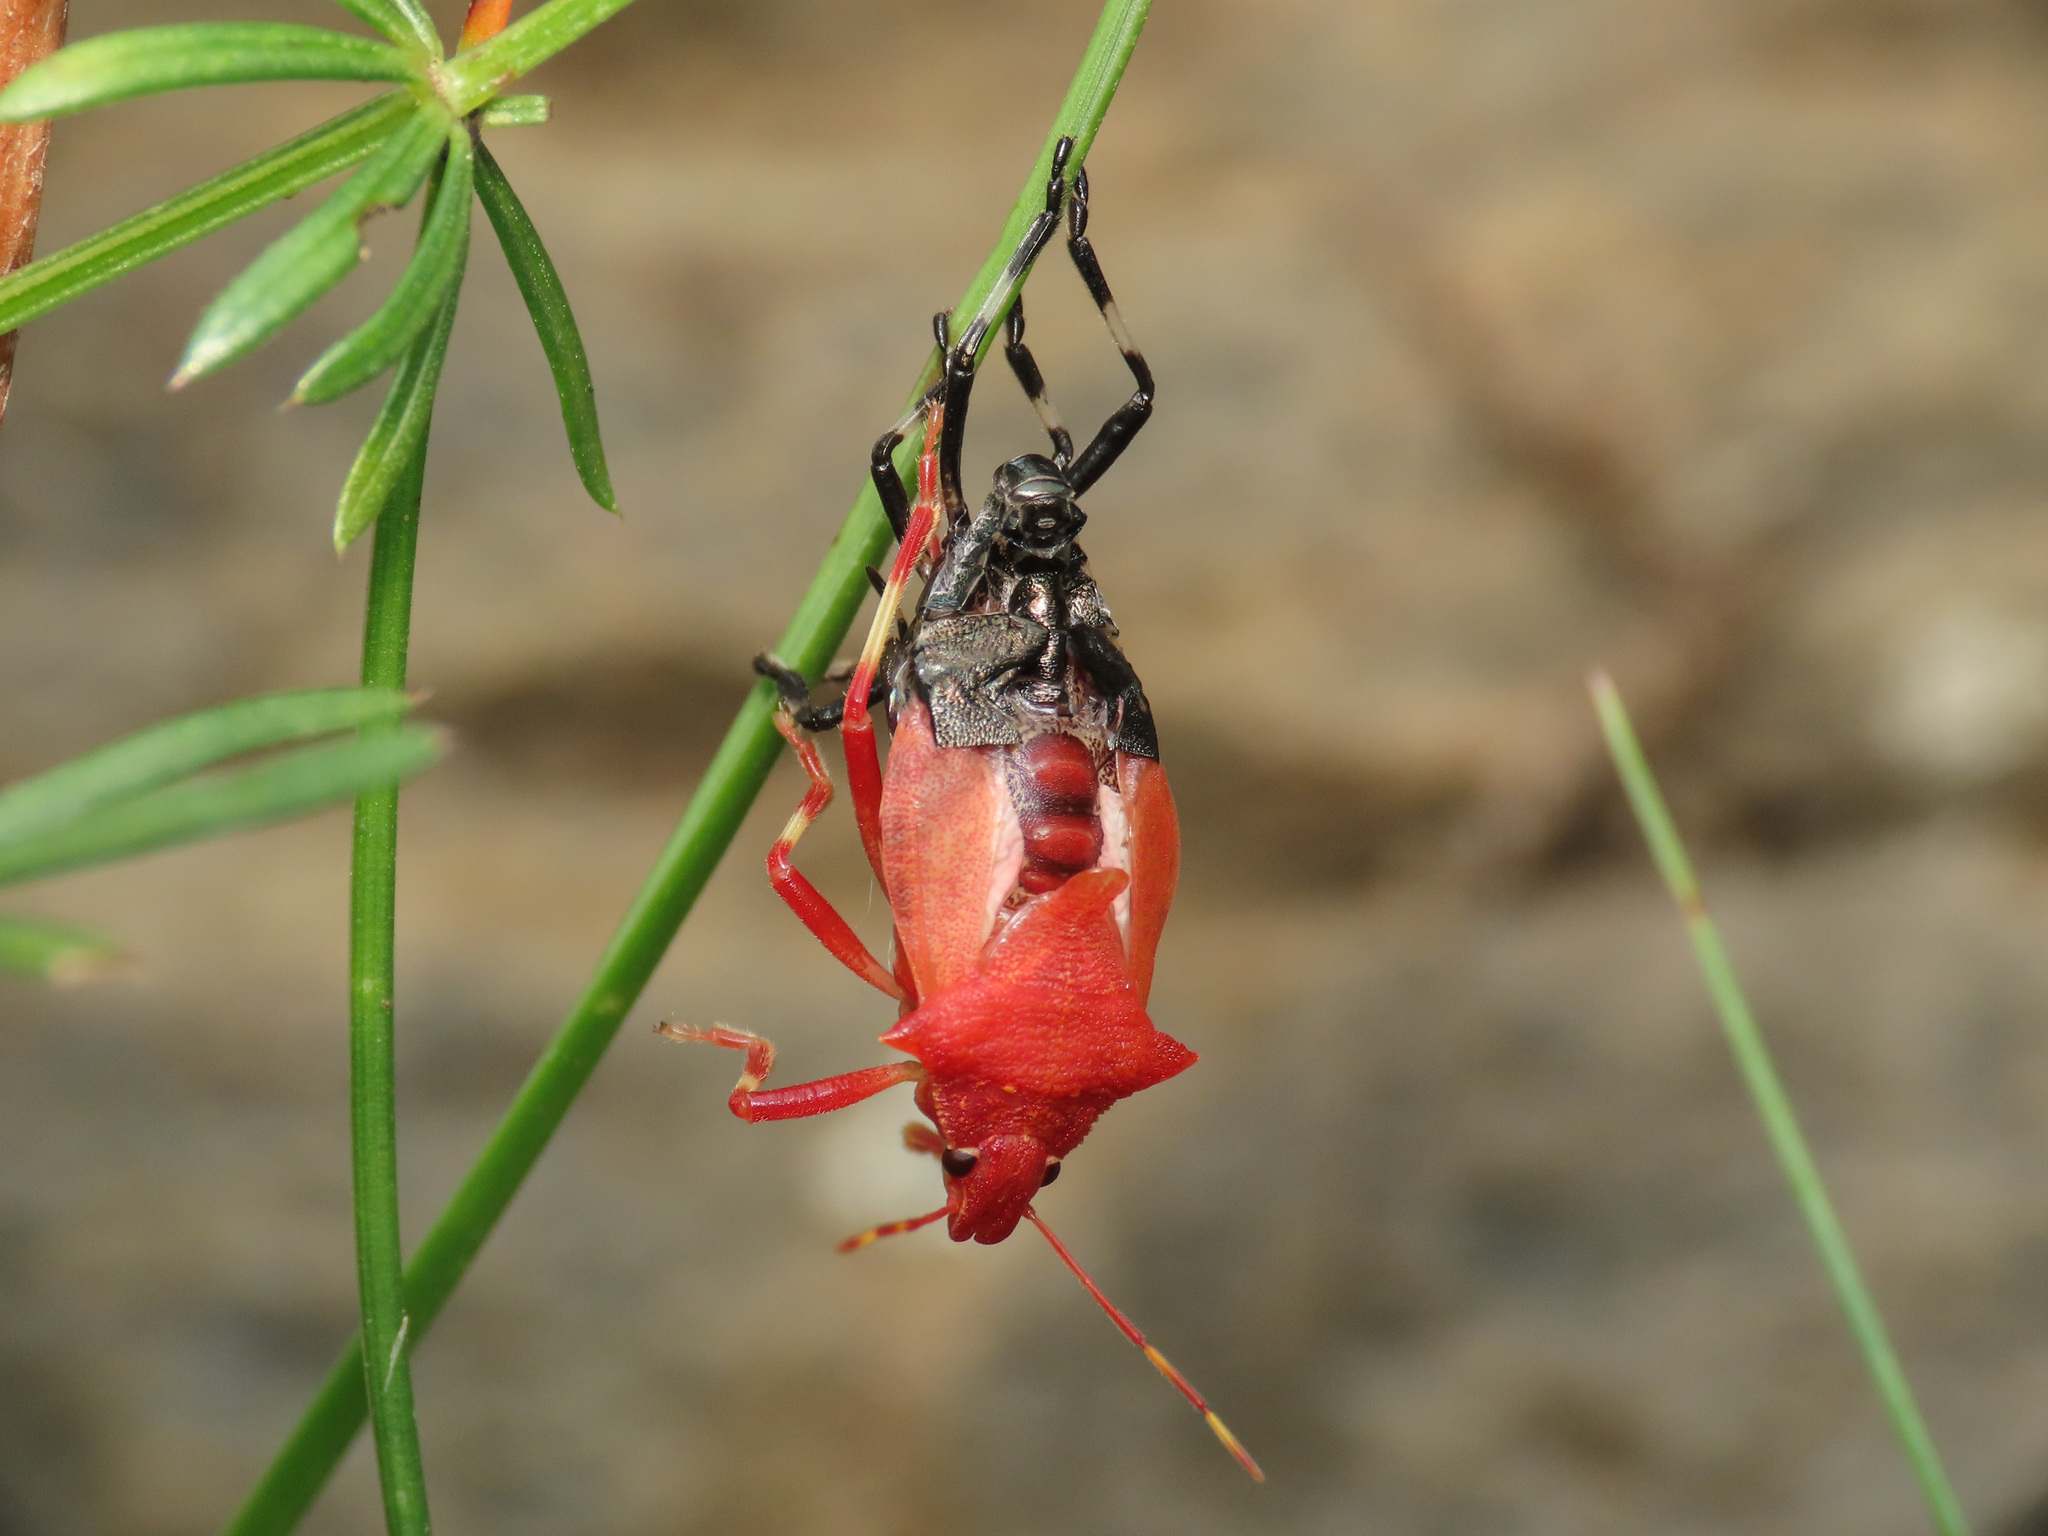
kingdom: Animalia
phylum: Arthropoda
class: Insecta
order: Hemiptera
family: Pentatomidae
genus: Picromerus
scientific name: Picromerus
